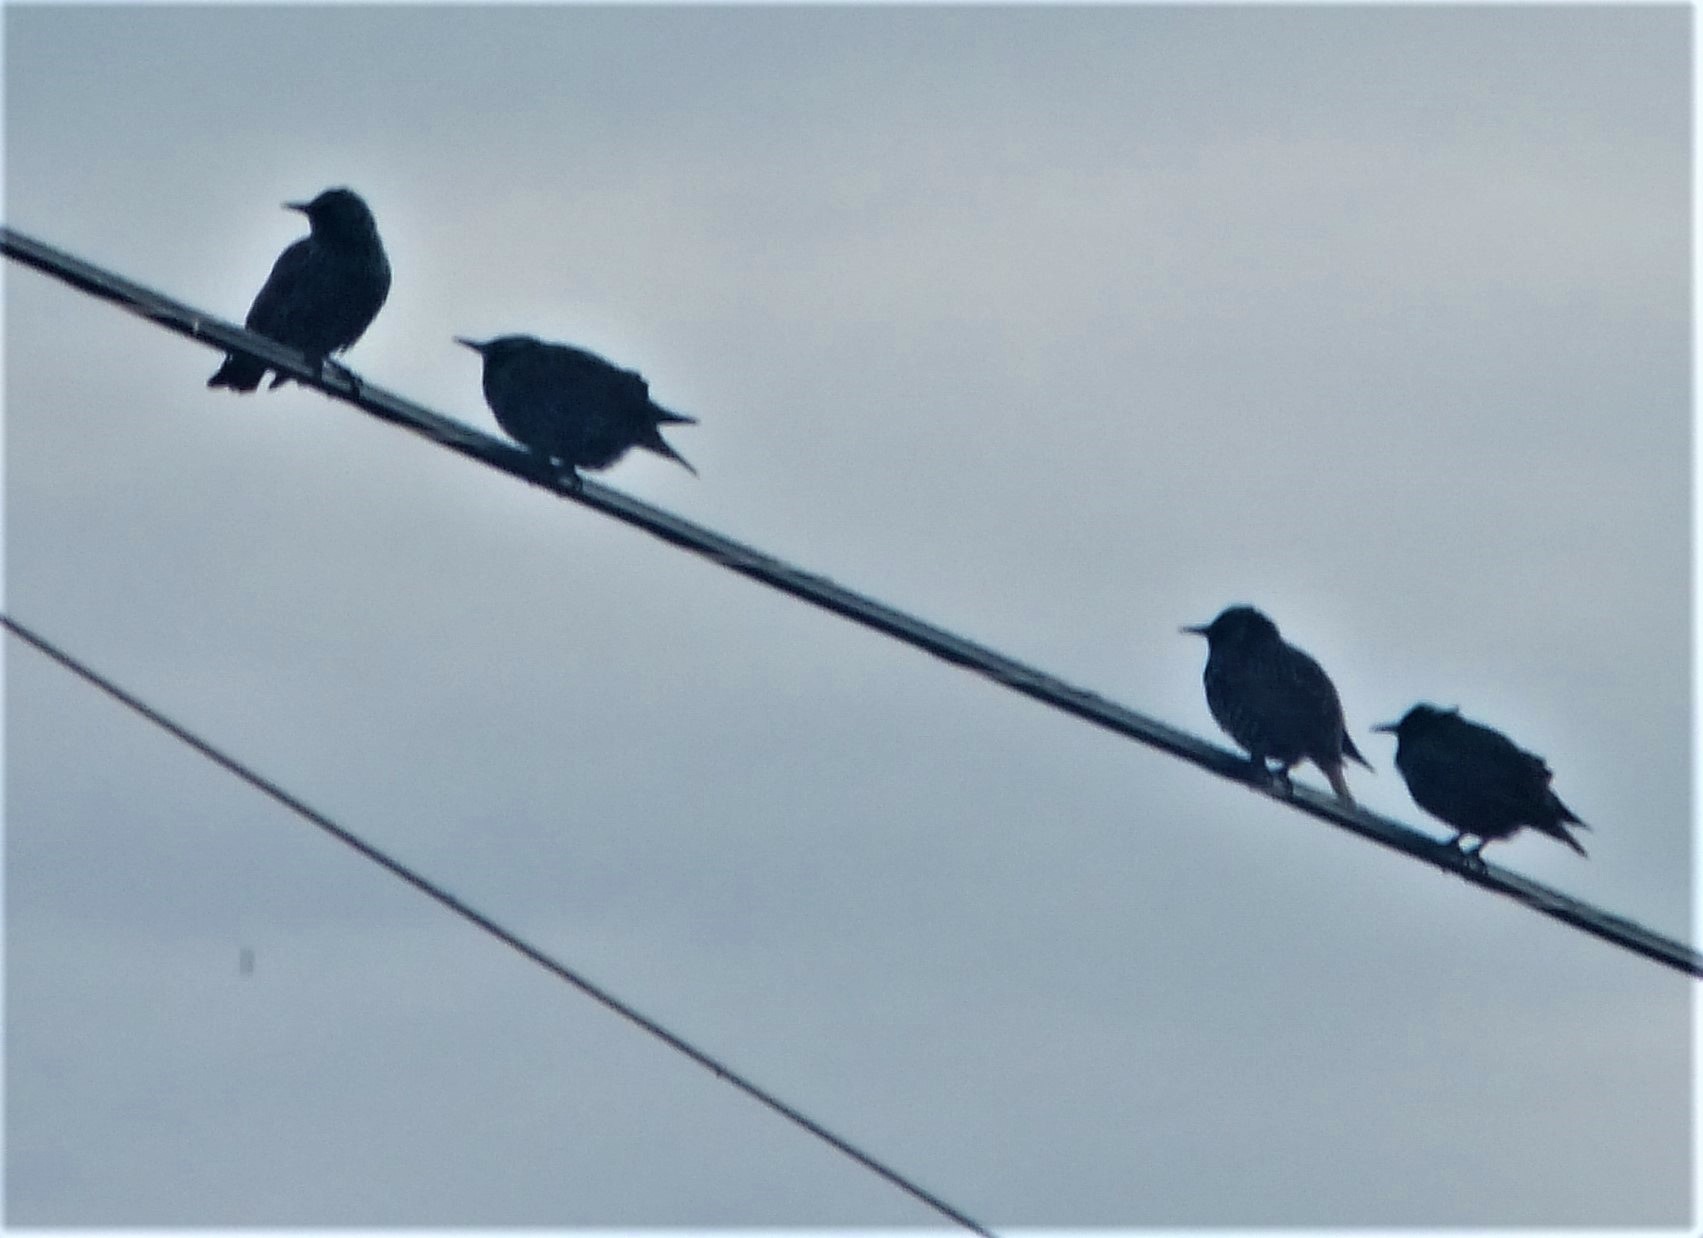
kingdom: Animalia
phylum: Chordata
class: Aves
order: Passeriformes
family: Sturnidae
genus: Sturnus
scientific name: Sturnus vulgaris
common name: Common starling
